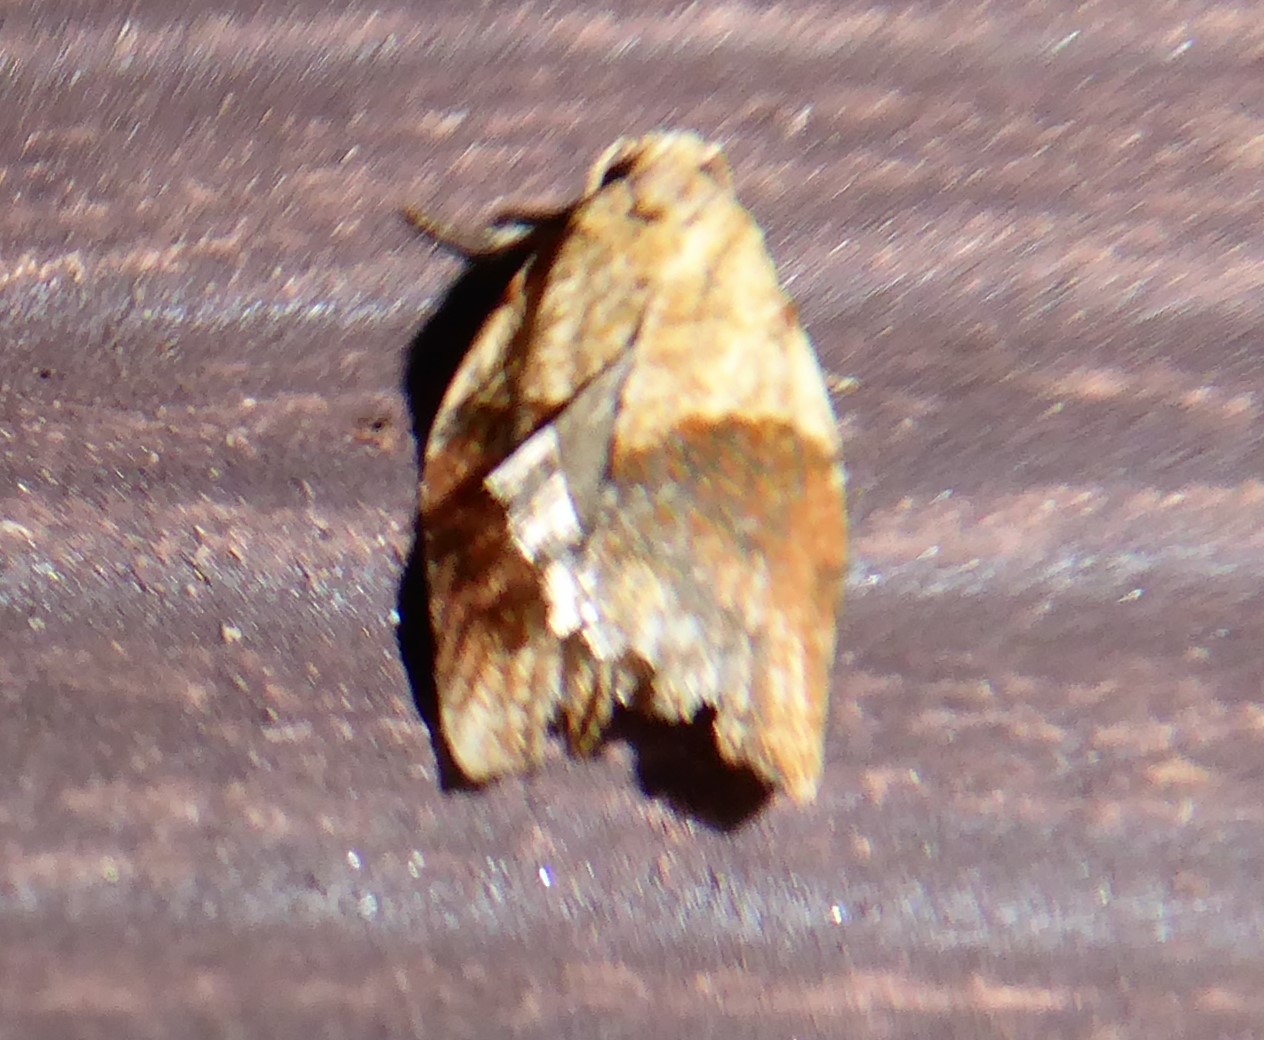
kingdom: Animalia
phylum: Arthropoda
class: Insecta
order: Lepidoptera
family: Tortricidae
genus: Epiphyas
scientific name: Epiphyas postvittana
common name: Light brown apple moth
